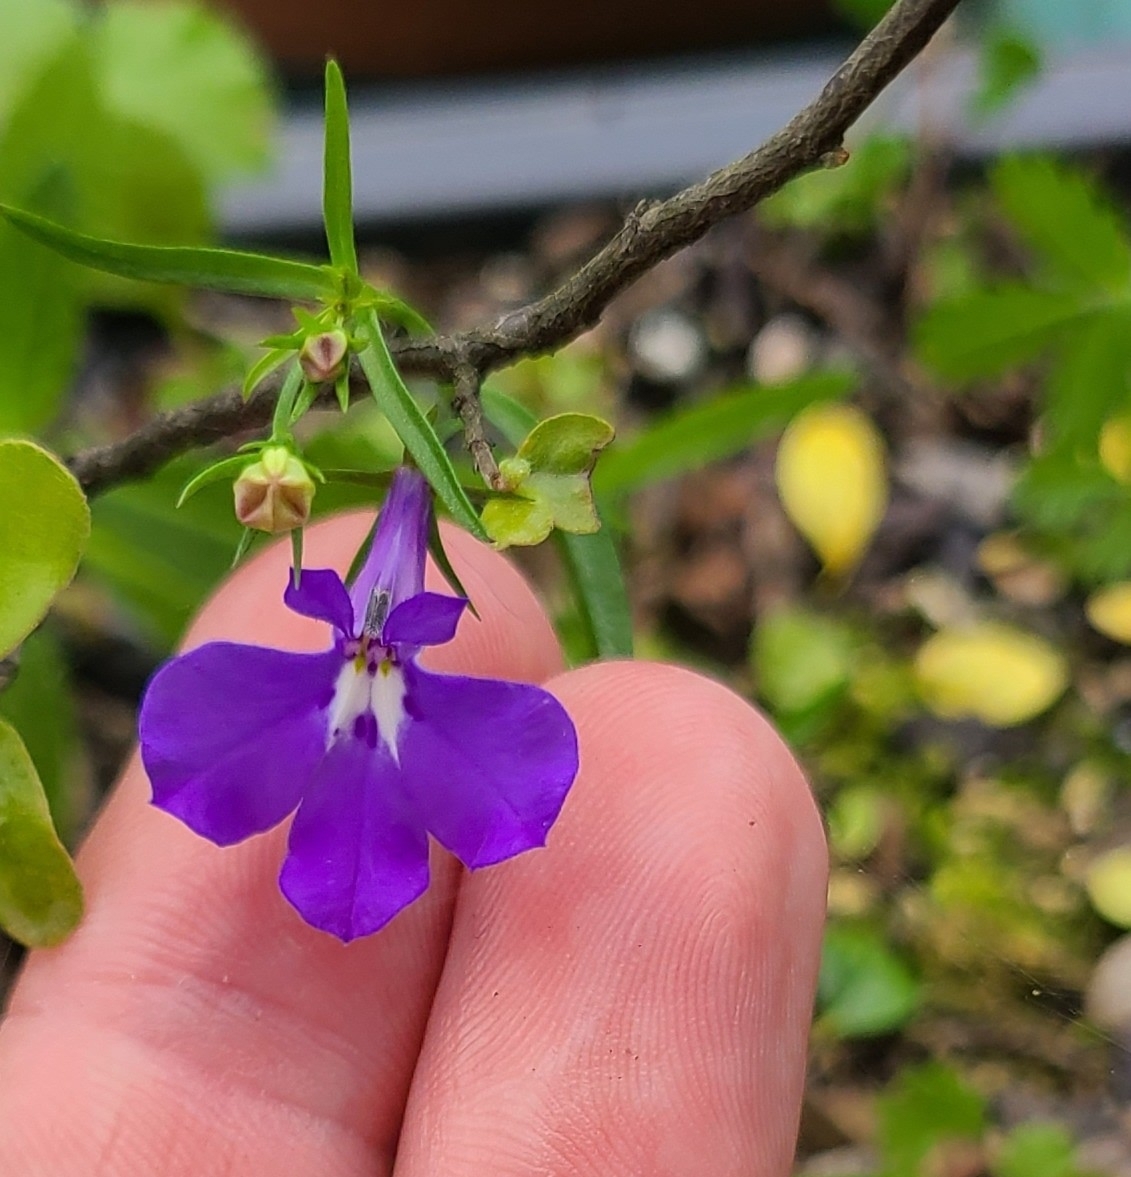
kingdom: Plantae
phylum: Tracheophyta
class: Magnoliopsida
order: Asterales
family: Campanulaceae
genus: Lobelia
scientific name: Lobelia erinus
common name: Edging lobelia
